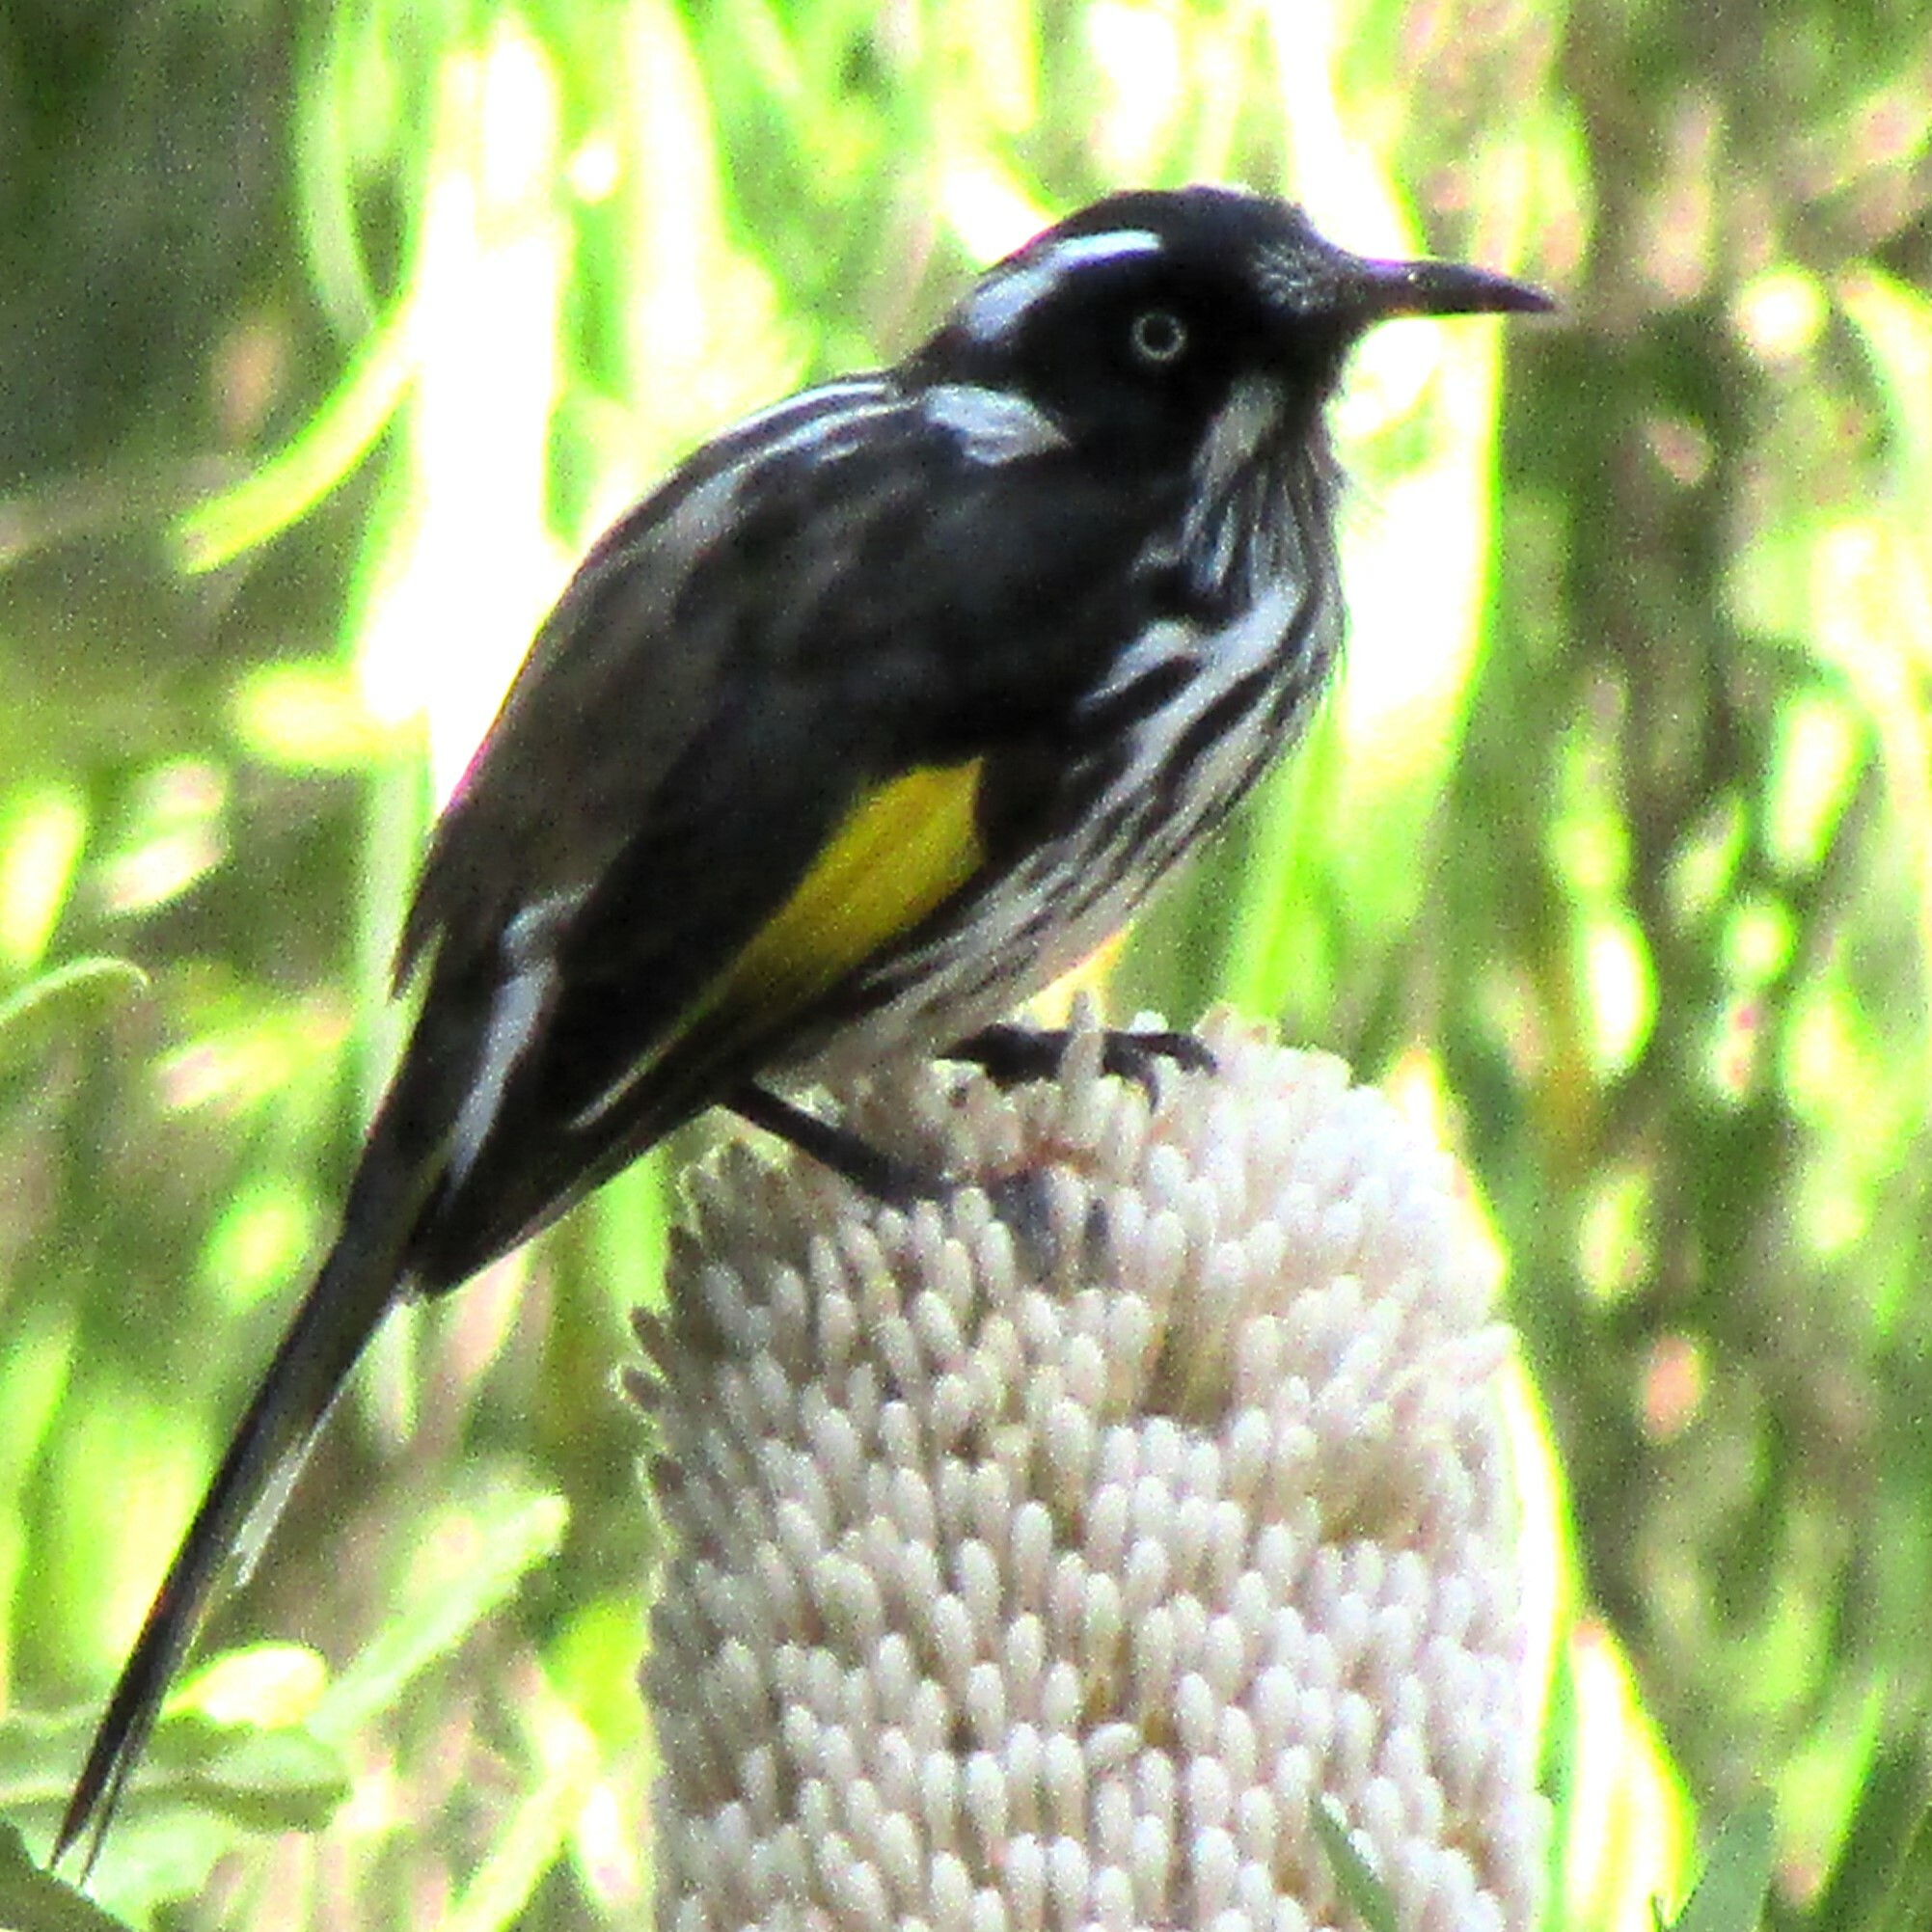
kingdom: Animalia
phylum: Chordata
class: Aves
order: Passeriformes
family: Meliphagidae
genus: Phylidonyris
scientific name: Phylidonyris novaehollandiae
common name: New holland honeyeater
